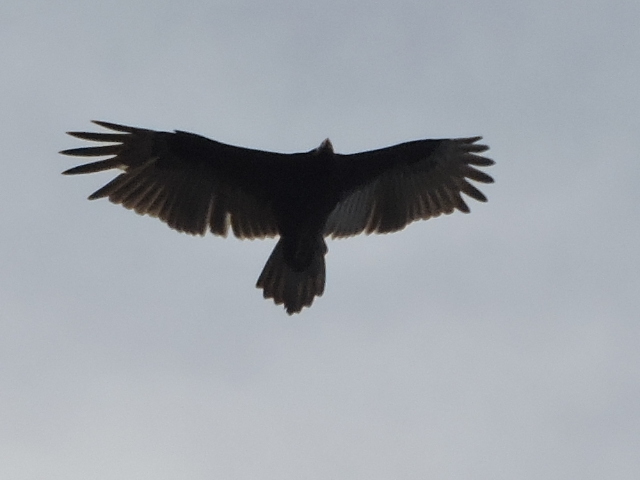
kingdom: Animalia
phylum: Chordata
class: Aves
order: Accipitriformes
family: Cathartidae
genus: Cathartes
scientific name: Cathartes aura
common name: Turkey vulture
